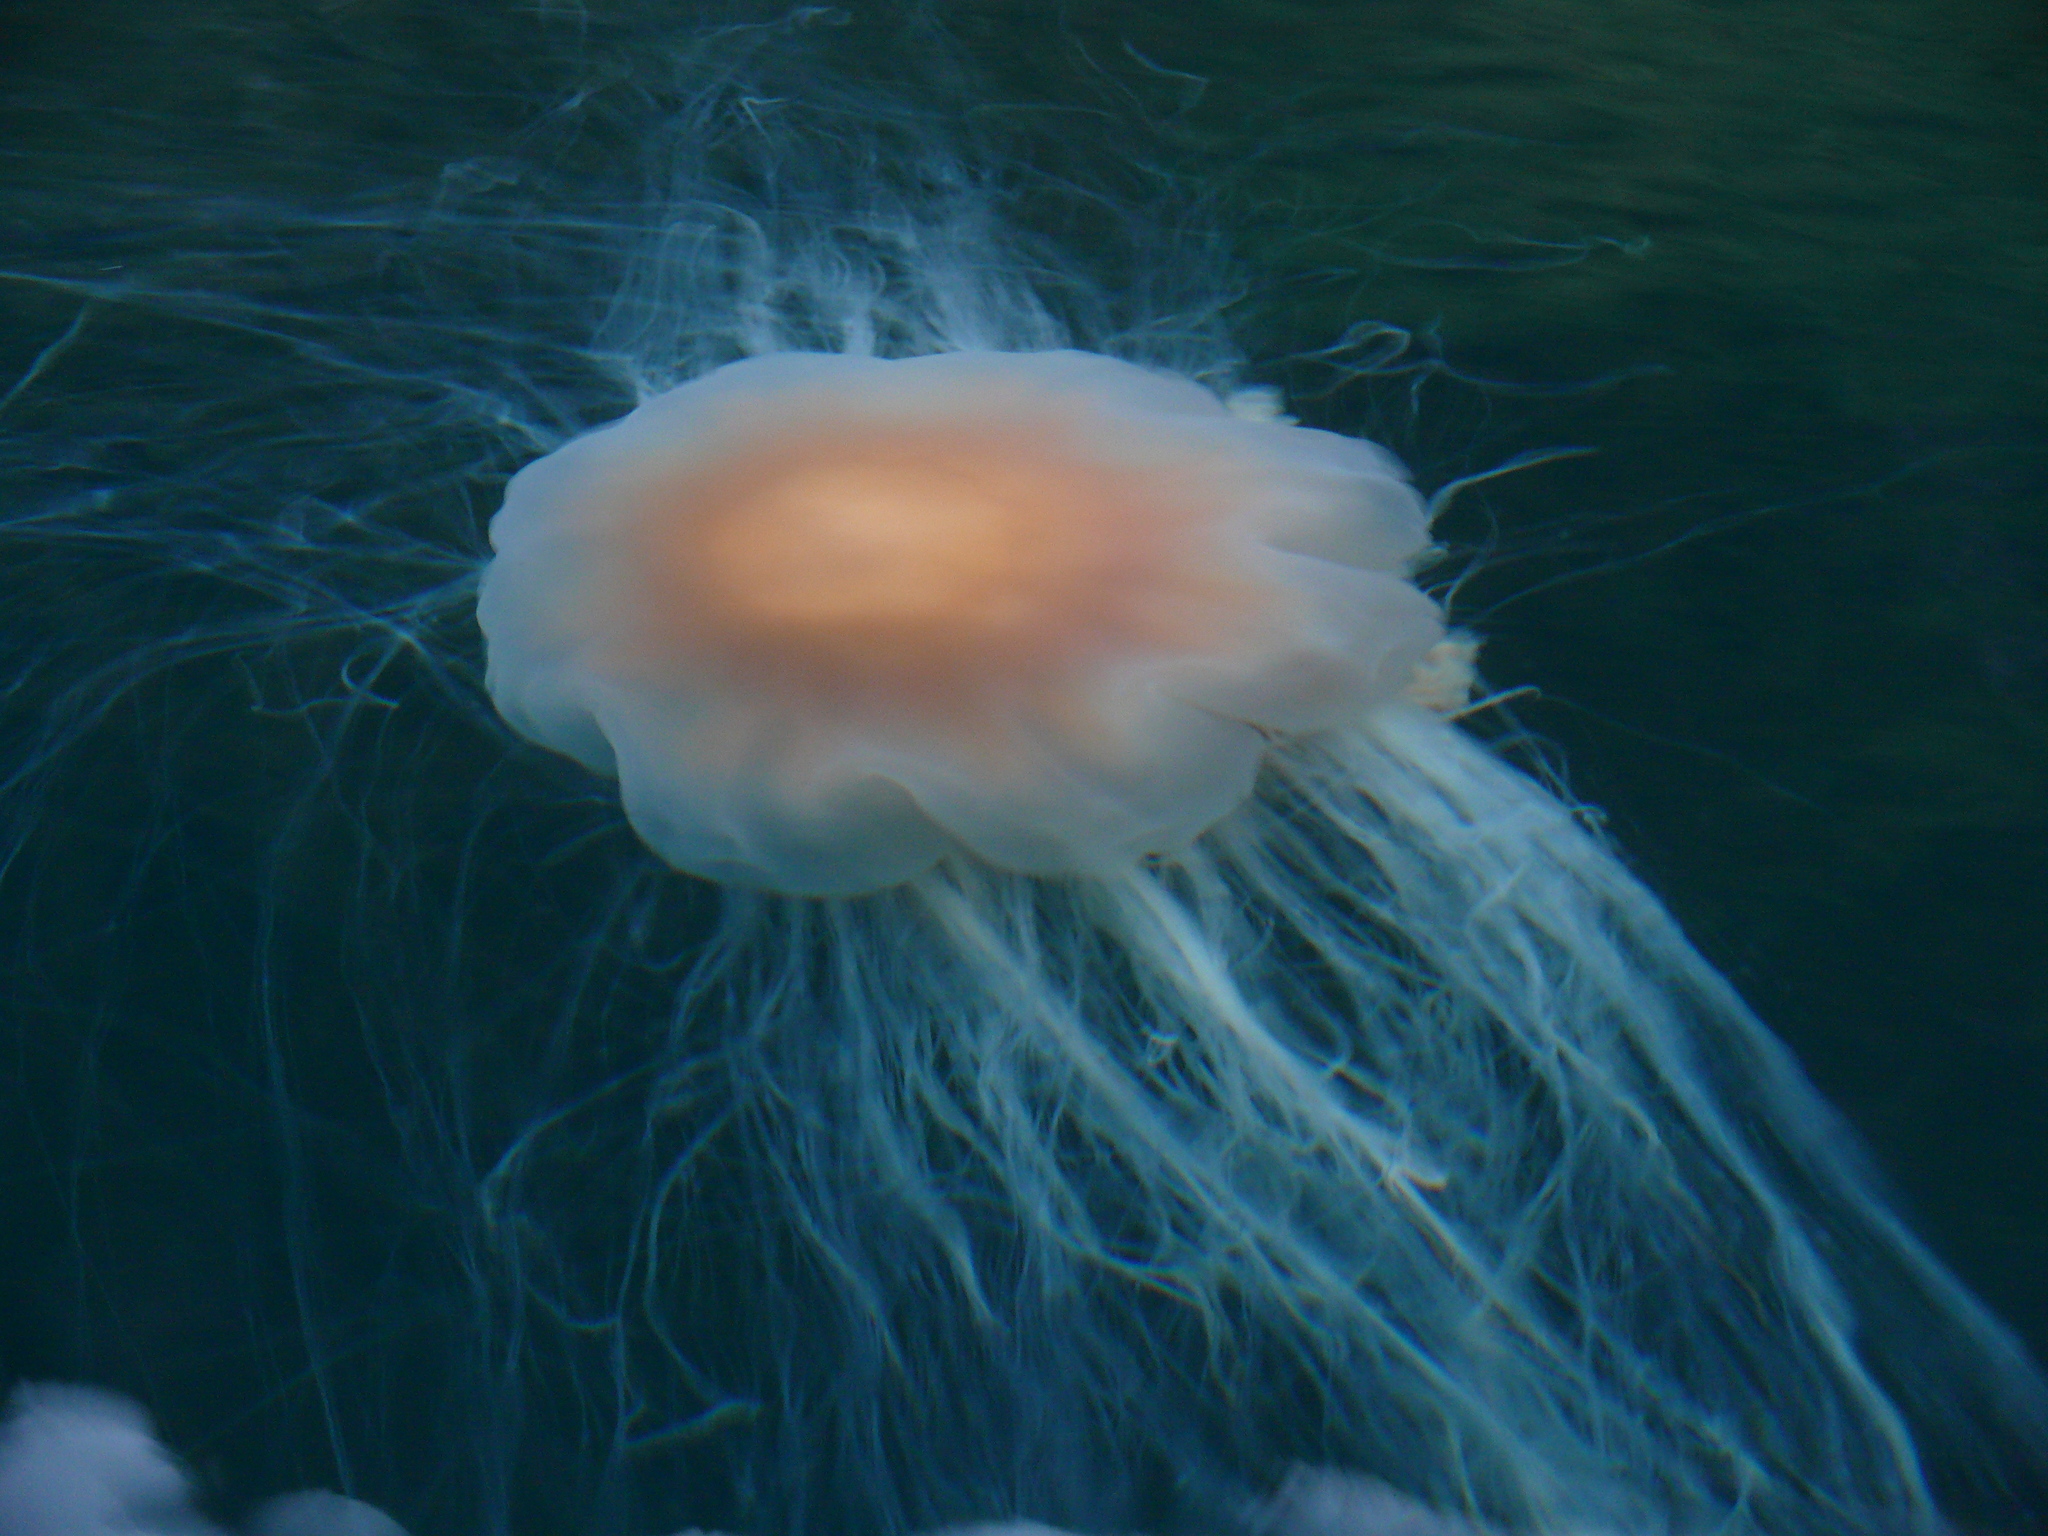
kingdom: Animalia
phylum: Cnidaria
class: Scyphozoa
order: Semaeostomeae
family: Cyaneidae
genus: Cyanea
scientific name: Cyanea ferruginea
